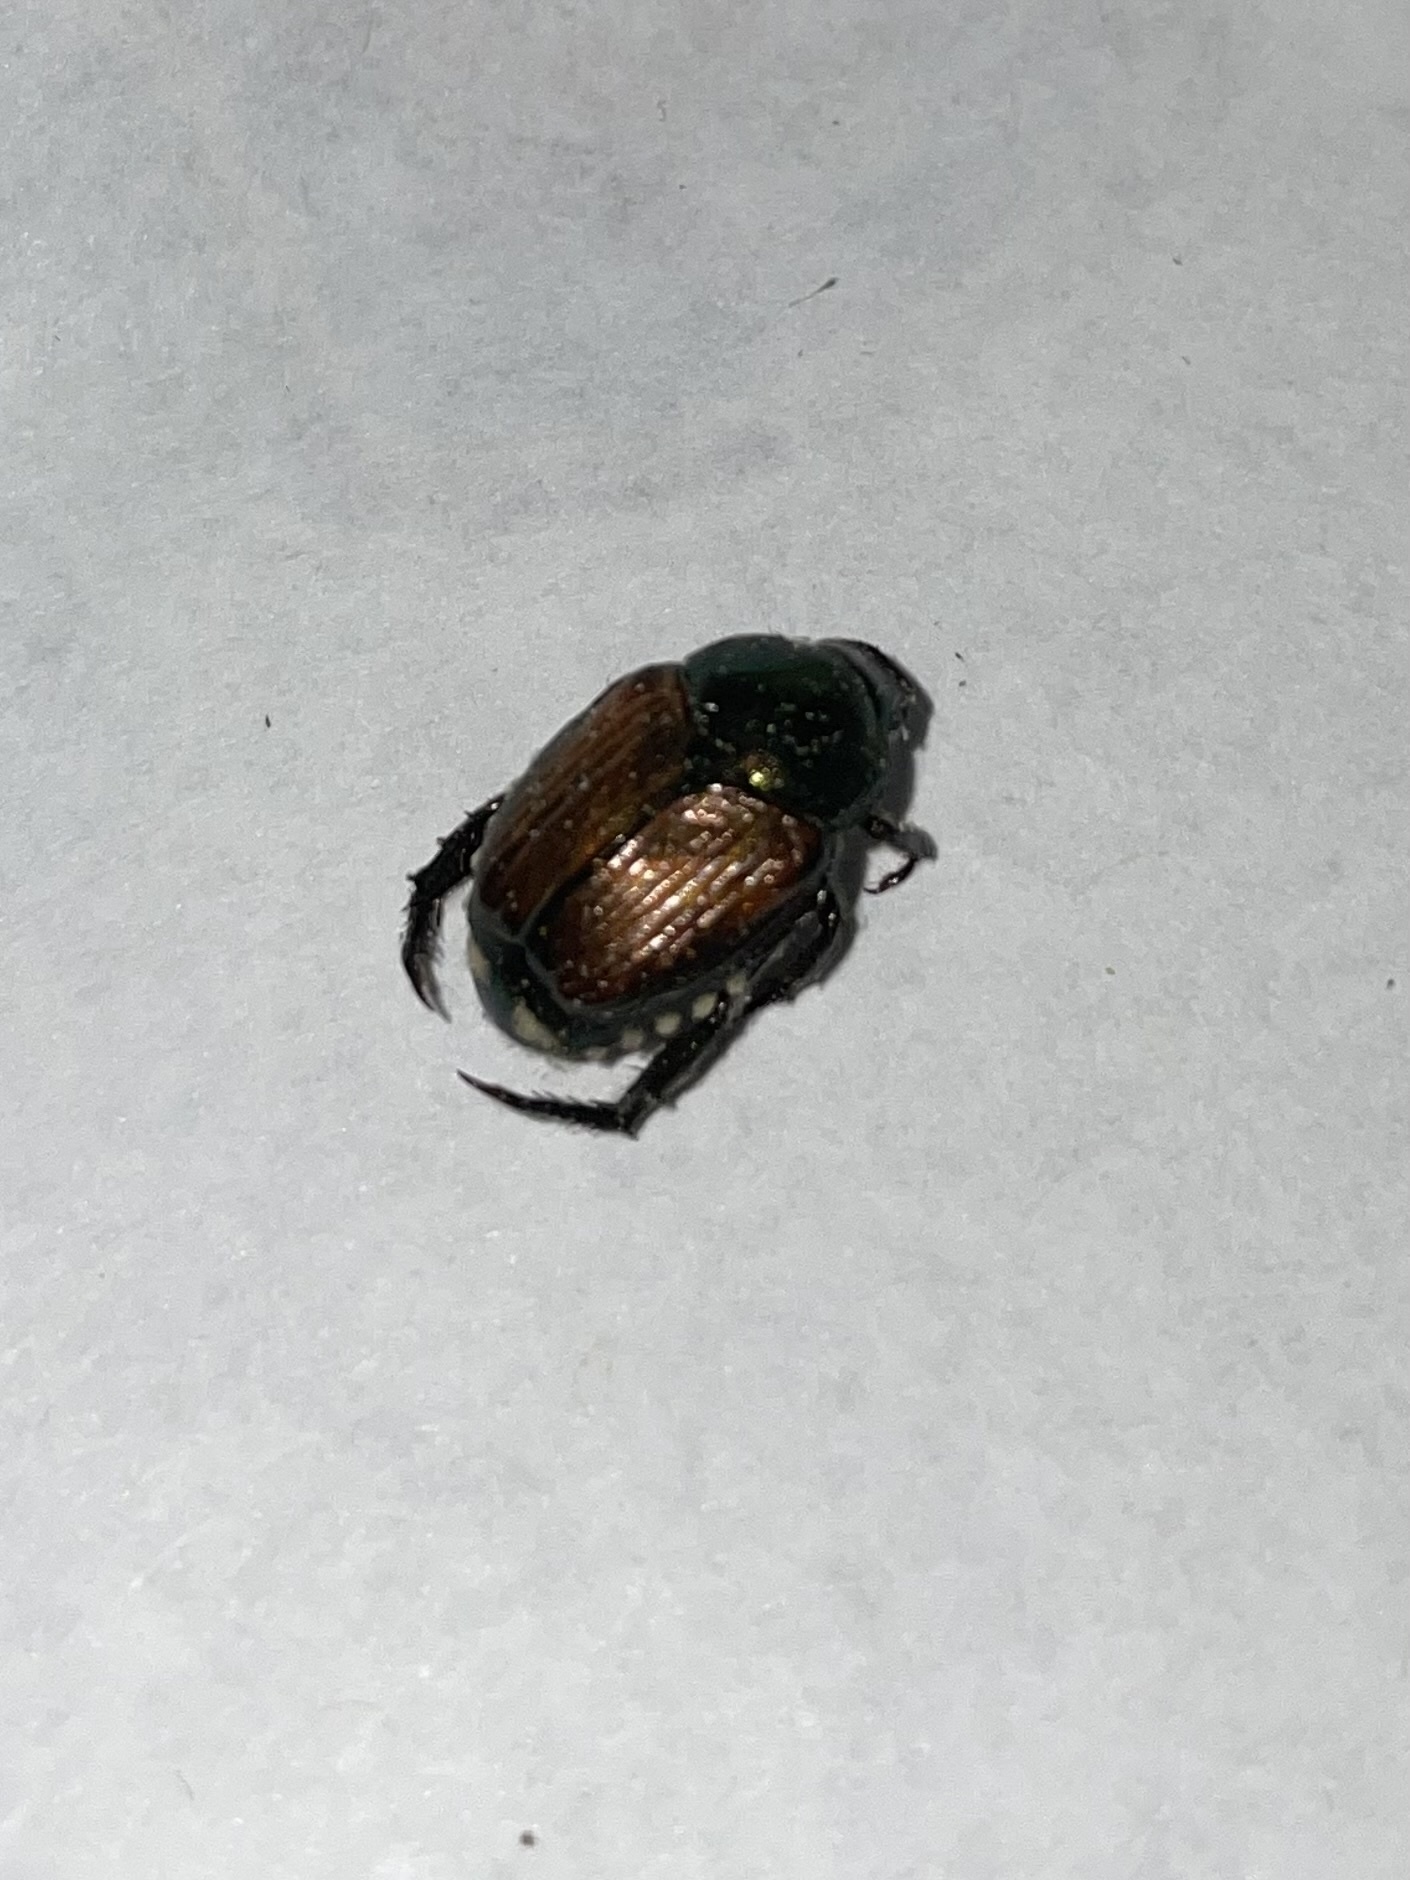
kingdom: Animalia
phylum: Arthropoda
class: Insecta
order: Coleoptera
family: Scarabaeidae
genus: Popillia
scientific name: Popillia japonica
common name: Japanese beetle
